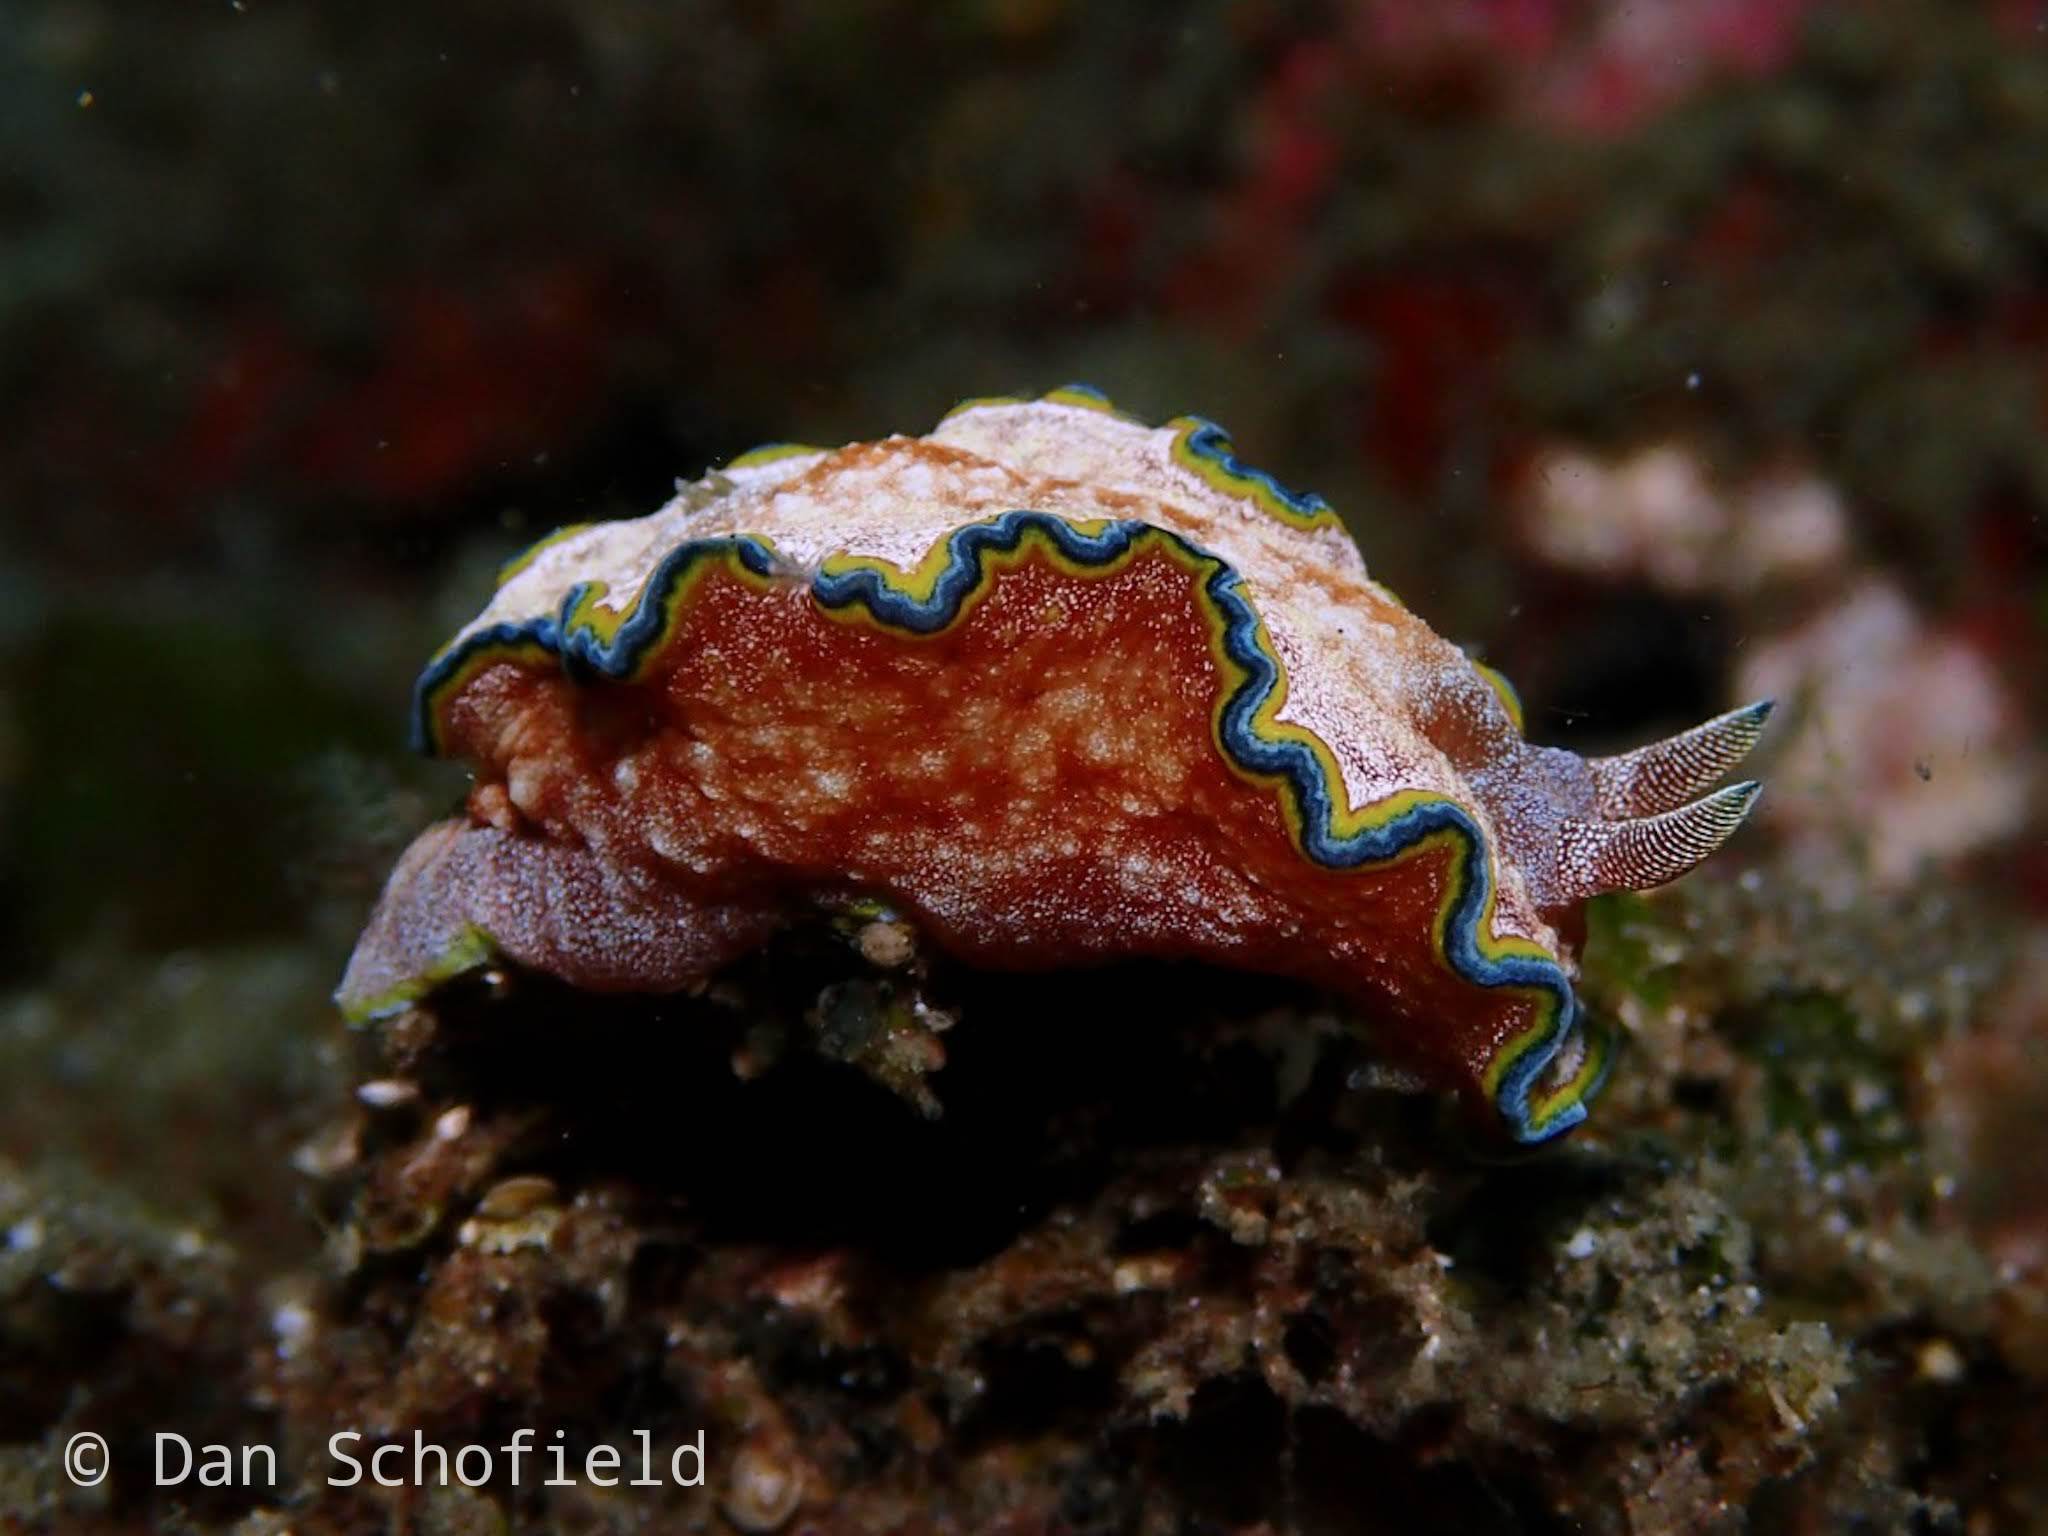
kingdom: Animalia
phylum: Mollusca
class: Gastropoda
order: Nudibranchia
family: Chromodorididae
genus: Glossodoris
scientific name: Glossodoris acosti
